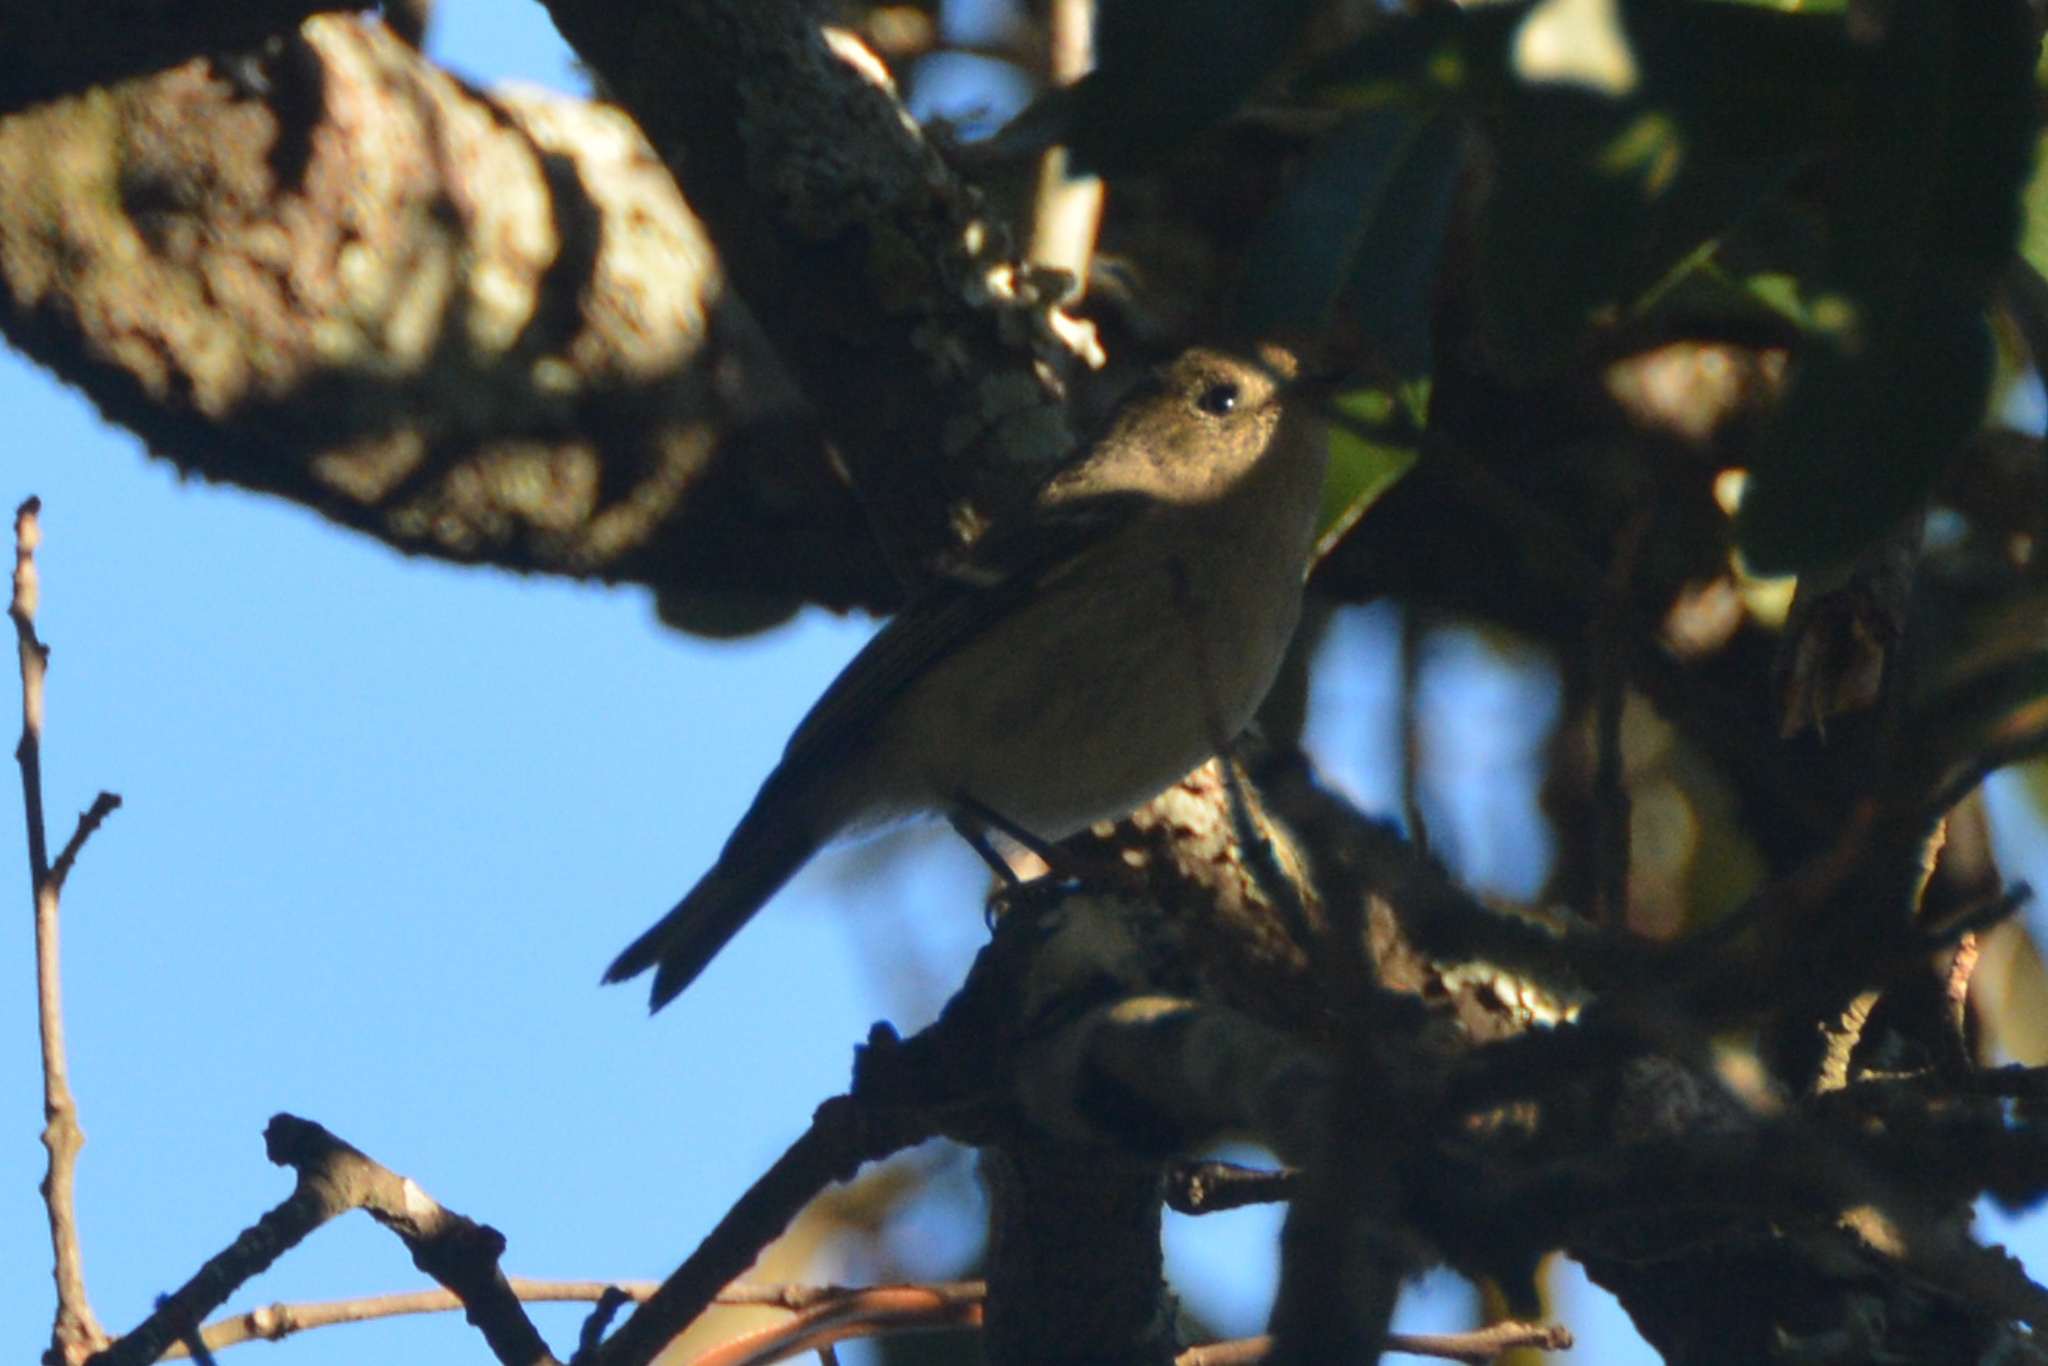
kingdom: Animalia
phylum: Chordata
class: Aves
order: Passeriformes
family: Regulidae
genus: Regulus
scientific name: Regulus calendula
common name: Ruby-crowned kinglet
